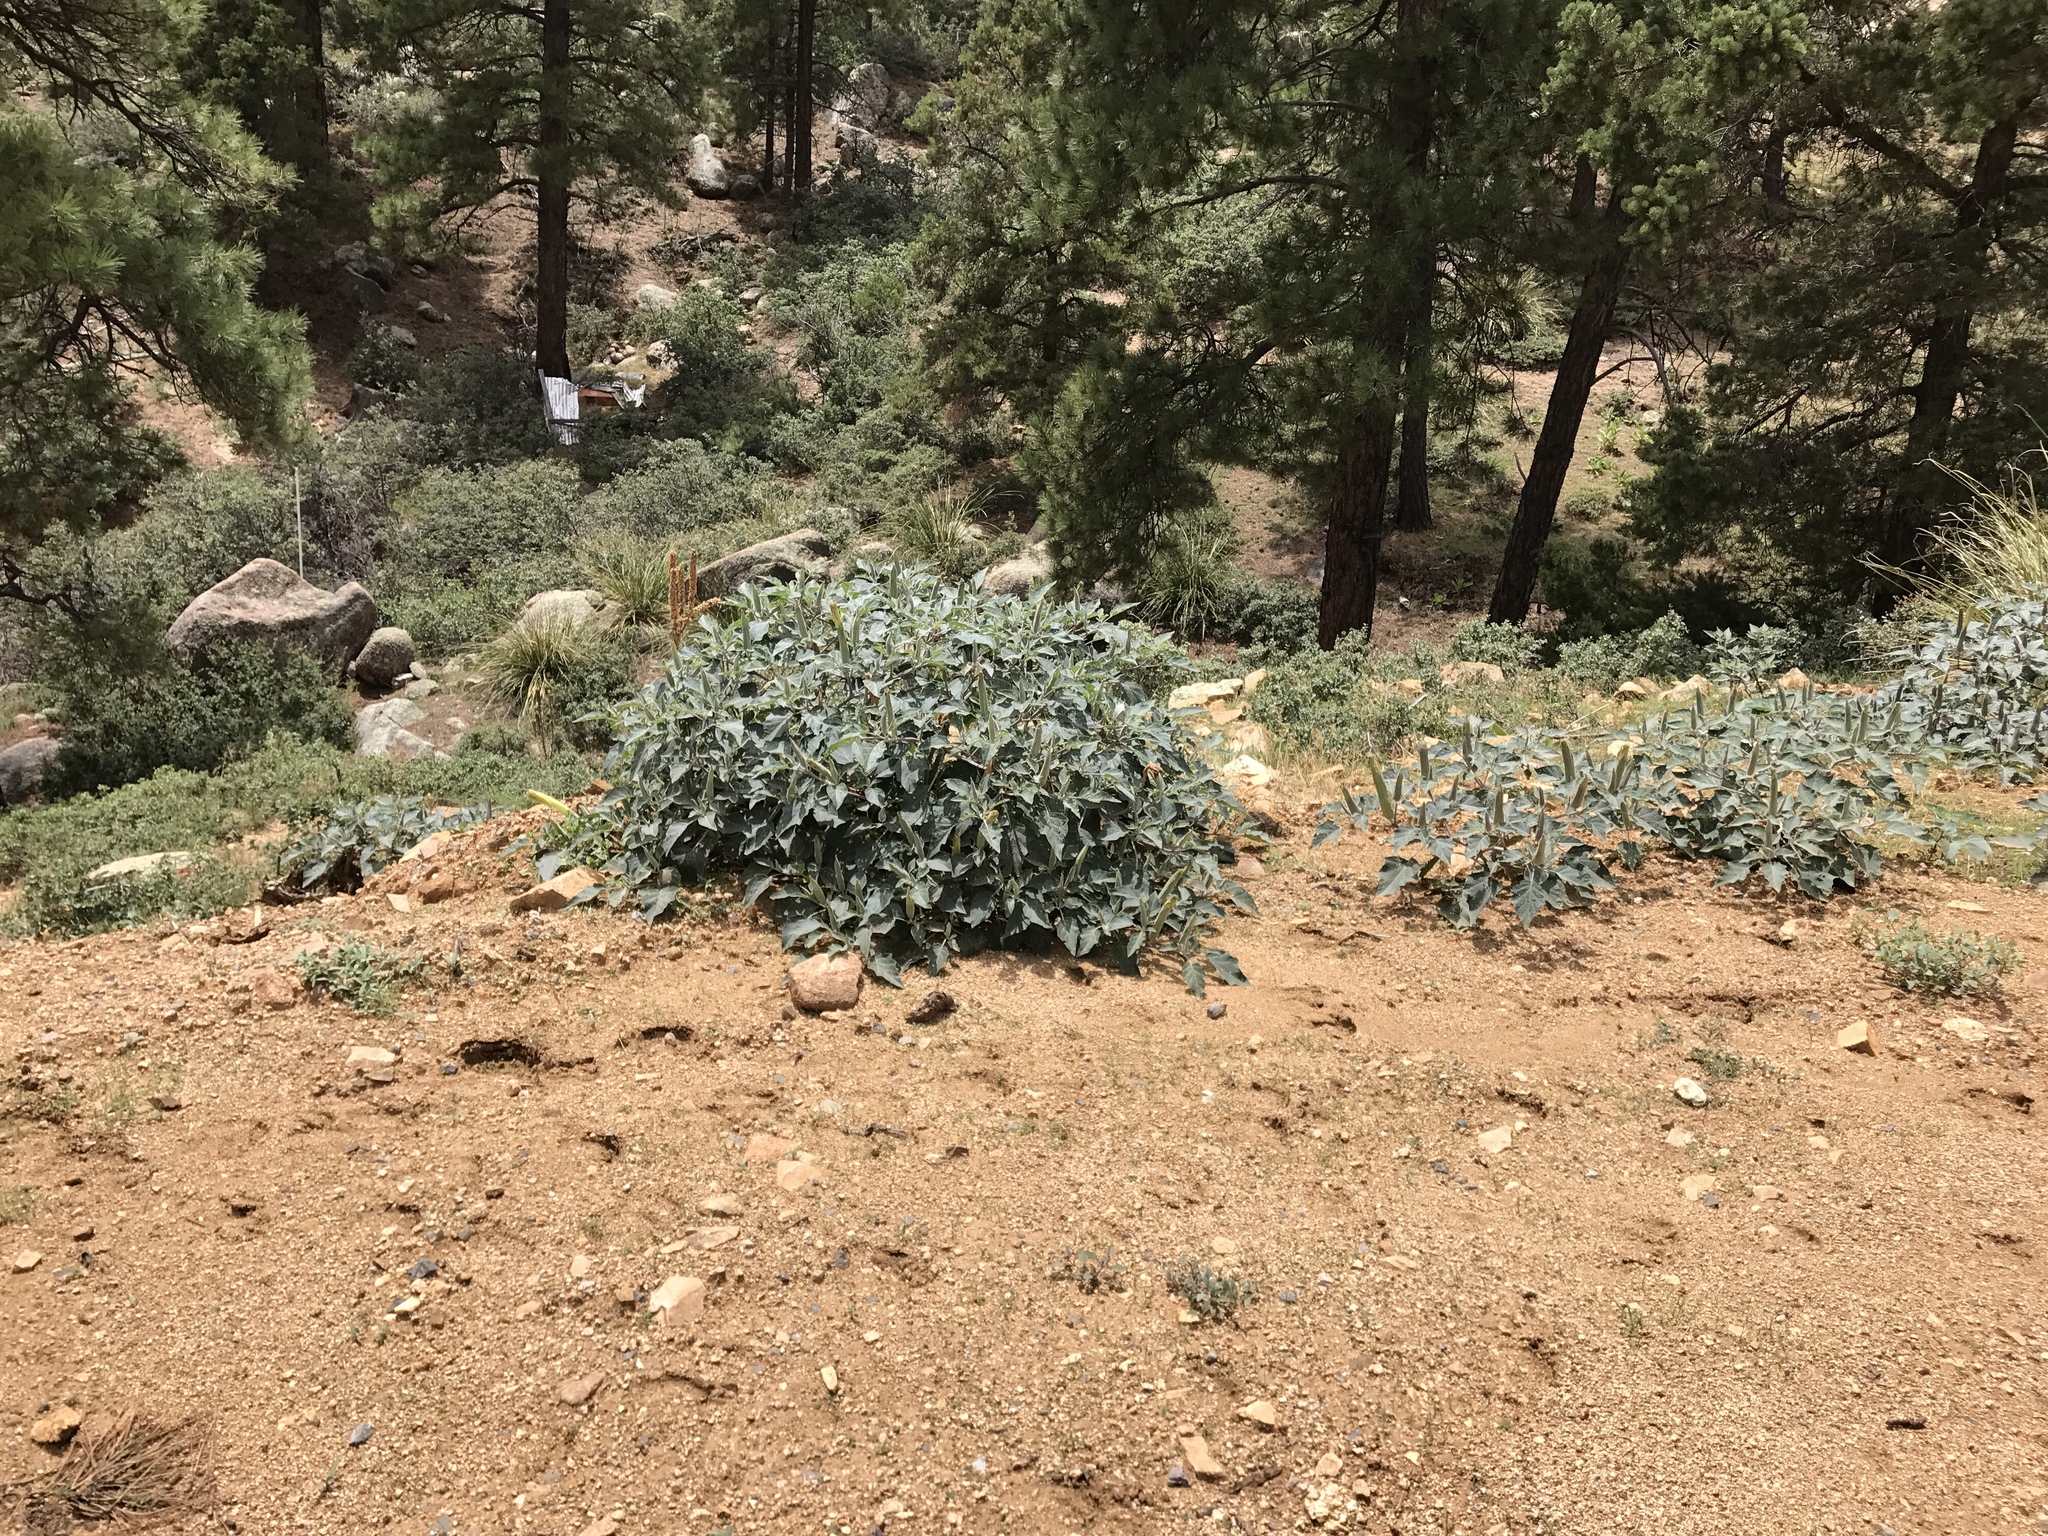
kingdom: Plantae
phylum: Tracheophyta
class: Magnoliopsida
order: Solanales
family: Solanaceae
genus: Datura
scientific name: Datura wrightii
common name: Sacred thorn-apple
